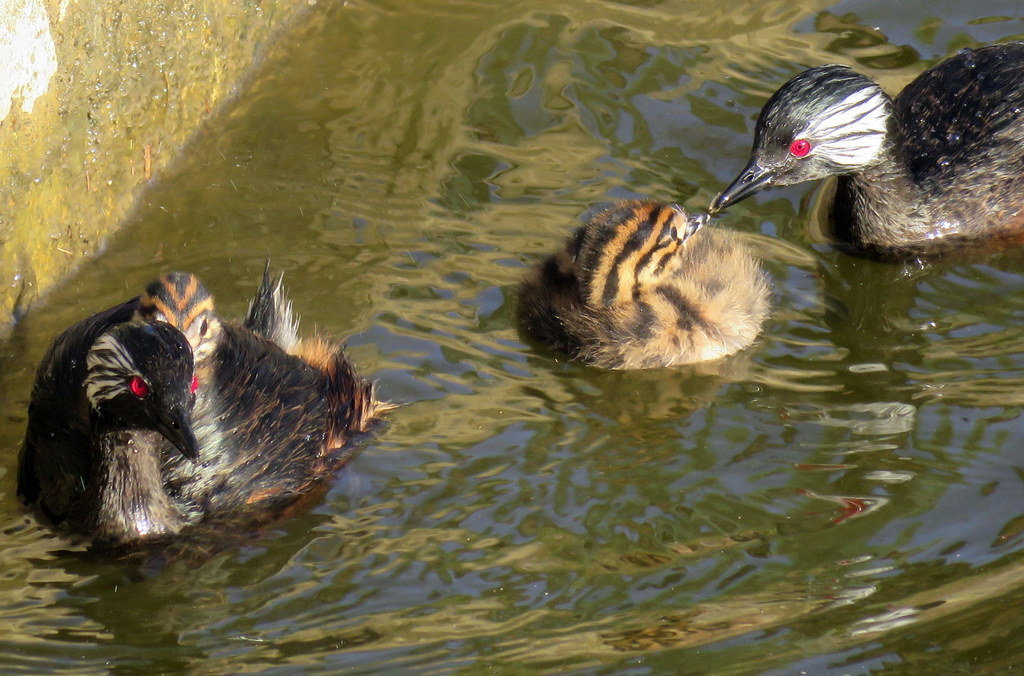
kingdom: Animalia
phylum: Chordata
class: Aves
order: Podicipediformes
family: Podicipedidae
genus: Rollandia
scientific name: Rollandia rolland
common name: White-tufted grebe
